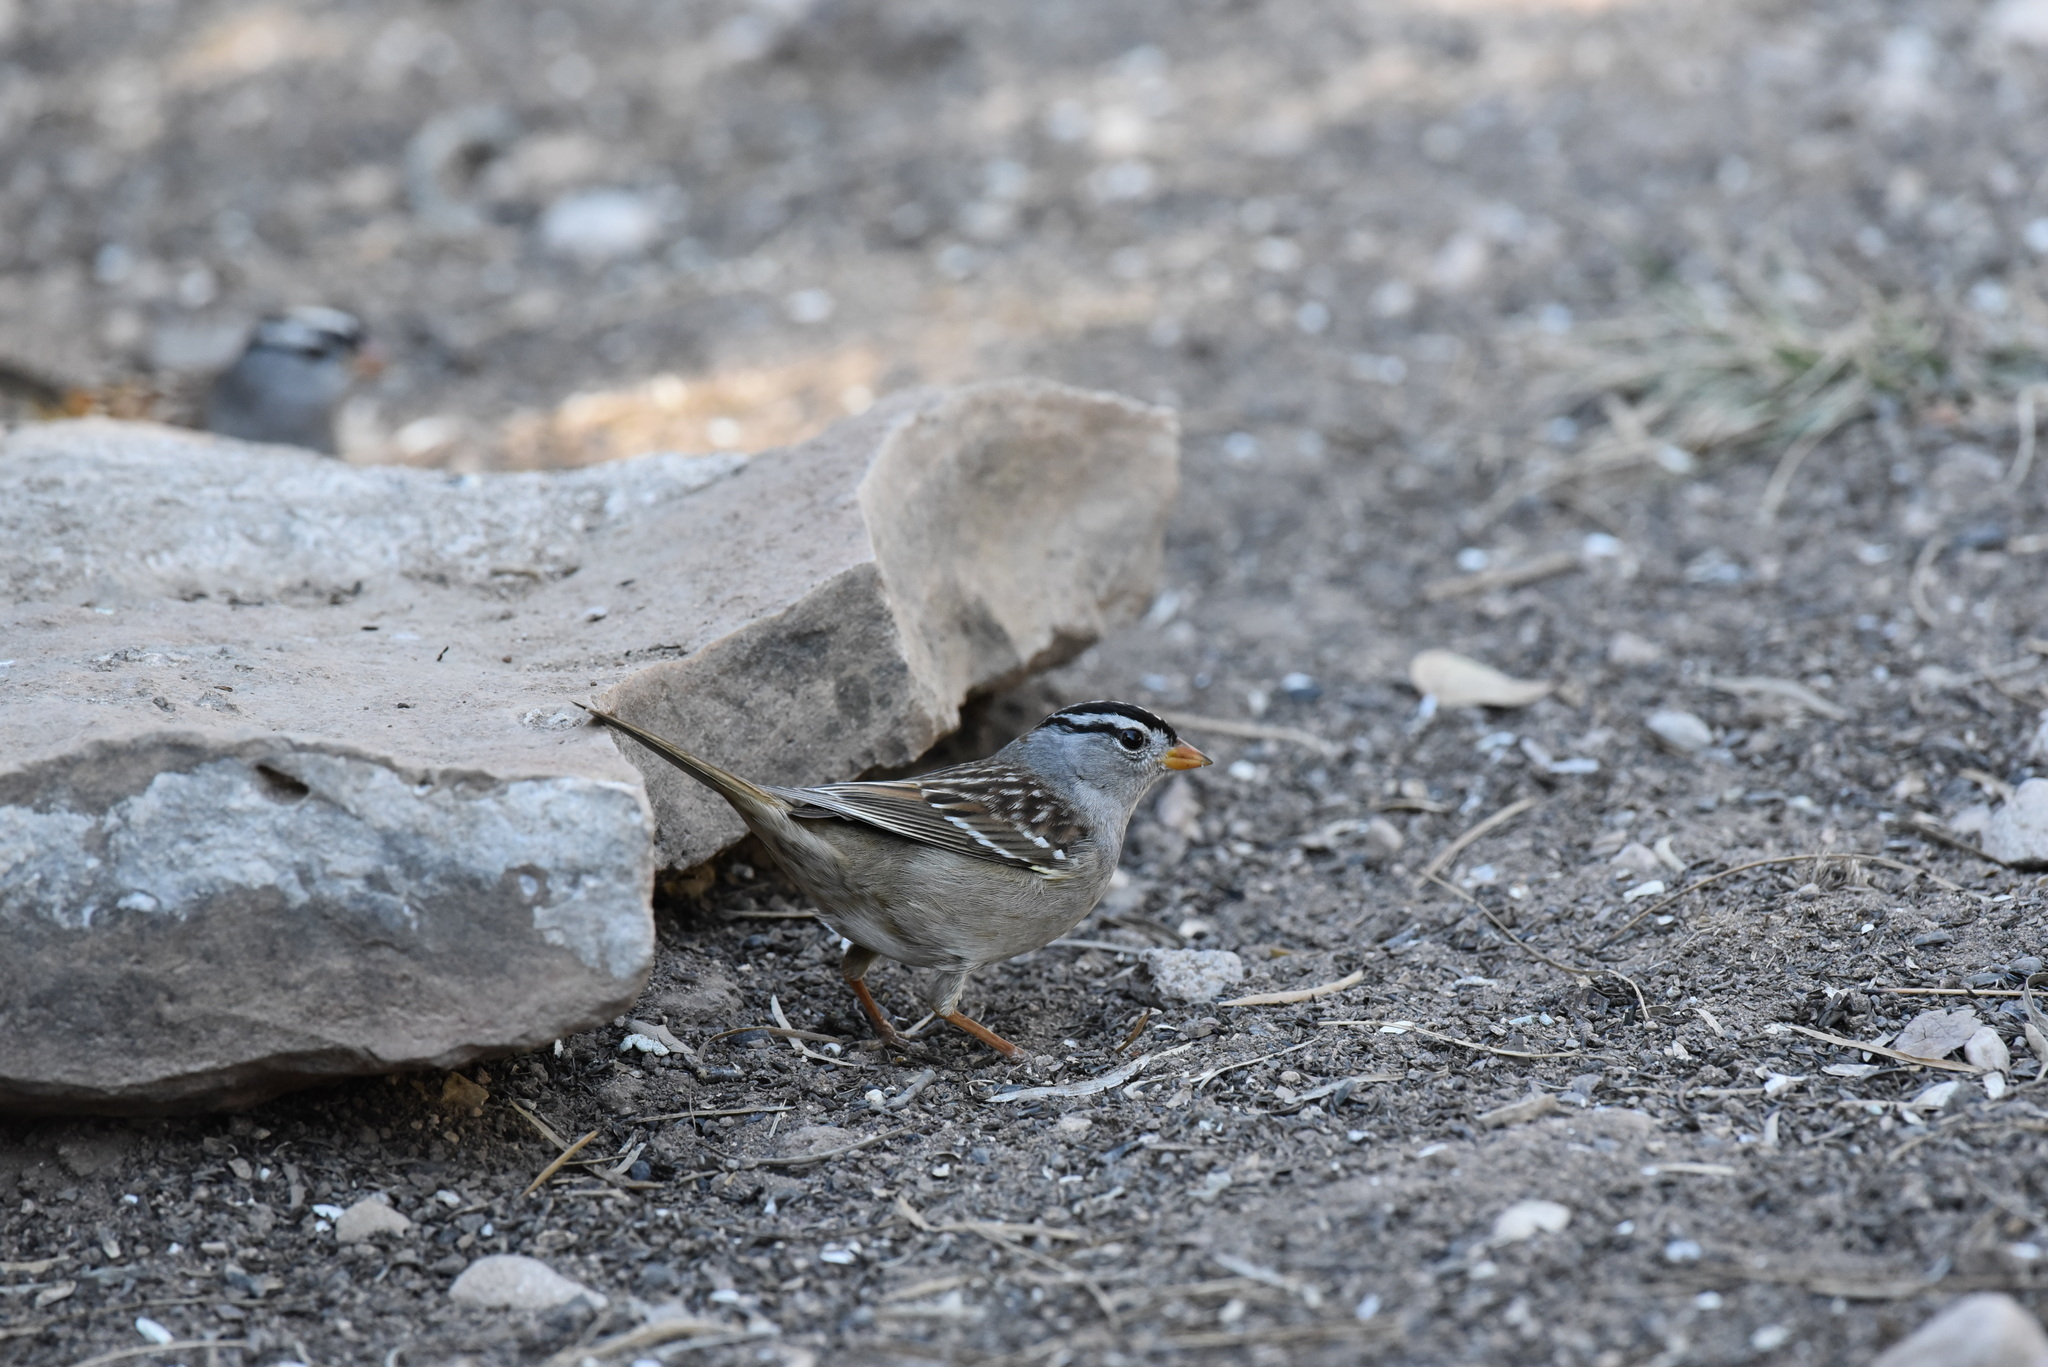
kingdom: Animalia
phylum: Chordata
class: Aves
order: Passeriformes
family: Passerellidae
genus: Zonotrichia
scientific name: Zonotrichia leucophrys
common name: White-crowned sparrow
